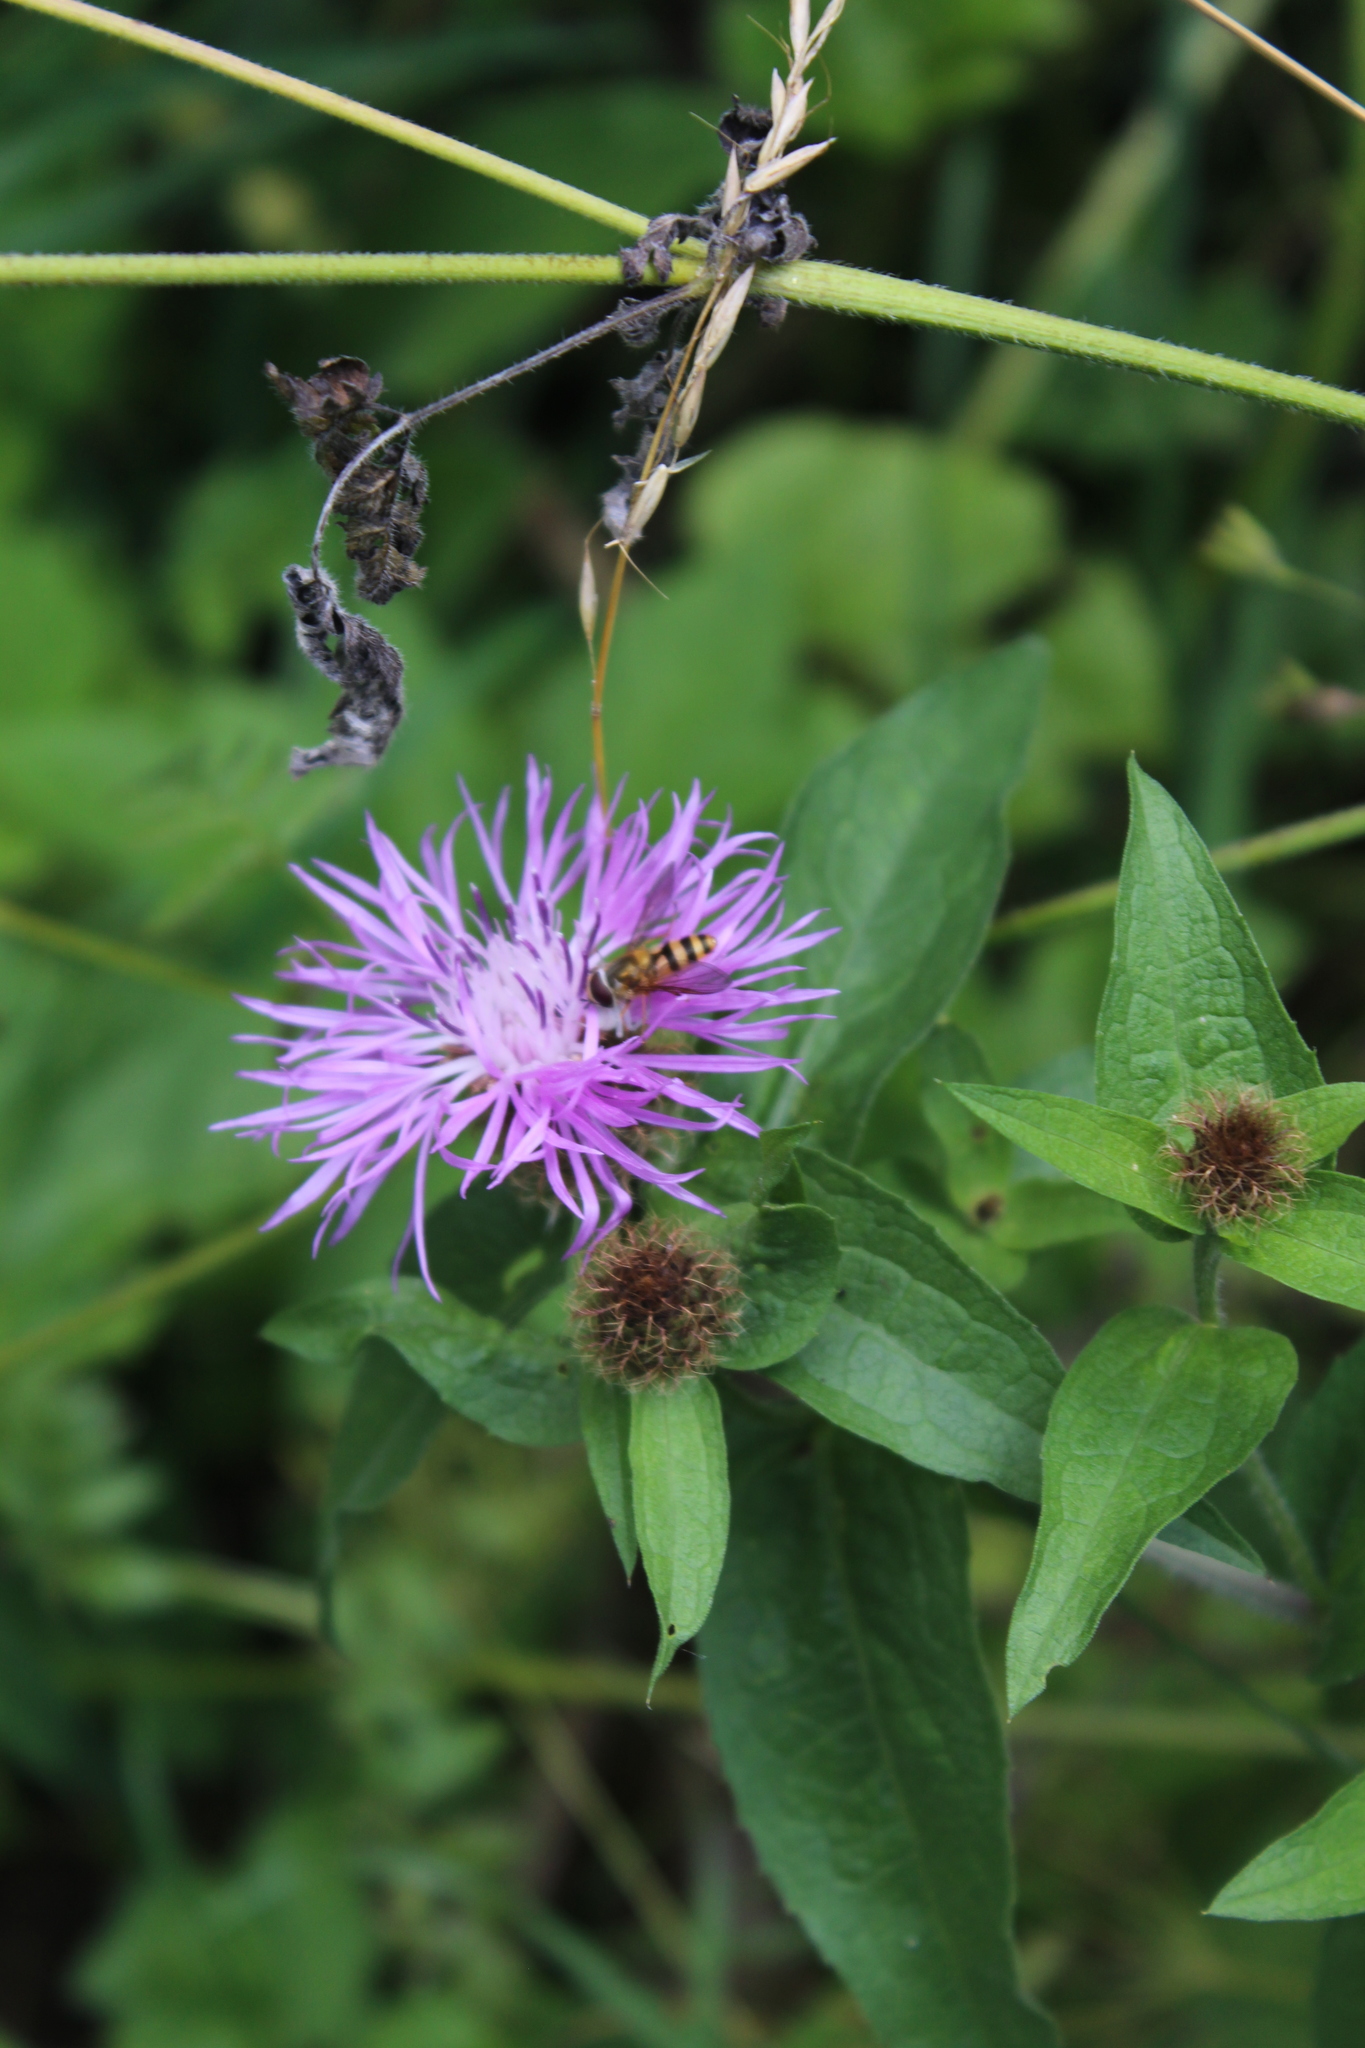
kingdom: Plantae
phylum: Tracheophyta
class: Magnoliopsida
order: Asterales
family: Asteraceae
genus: Centaurea
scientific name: Centaurea phrygia
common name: Wig knapweed
